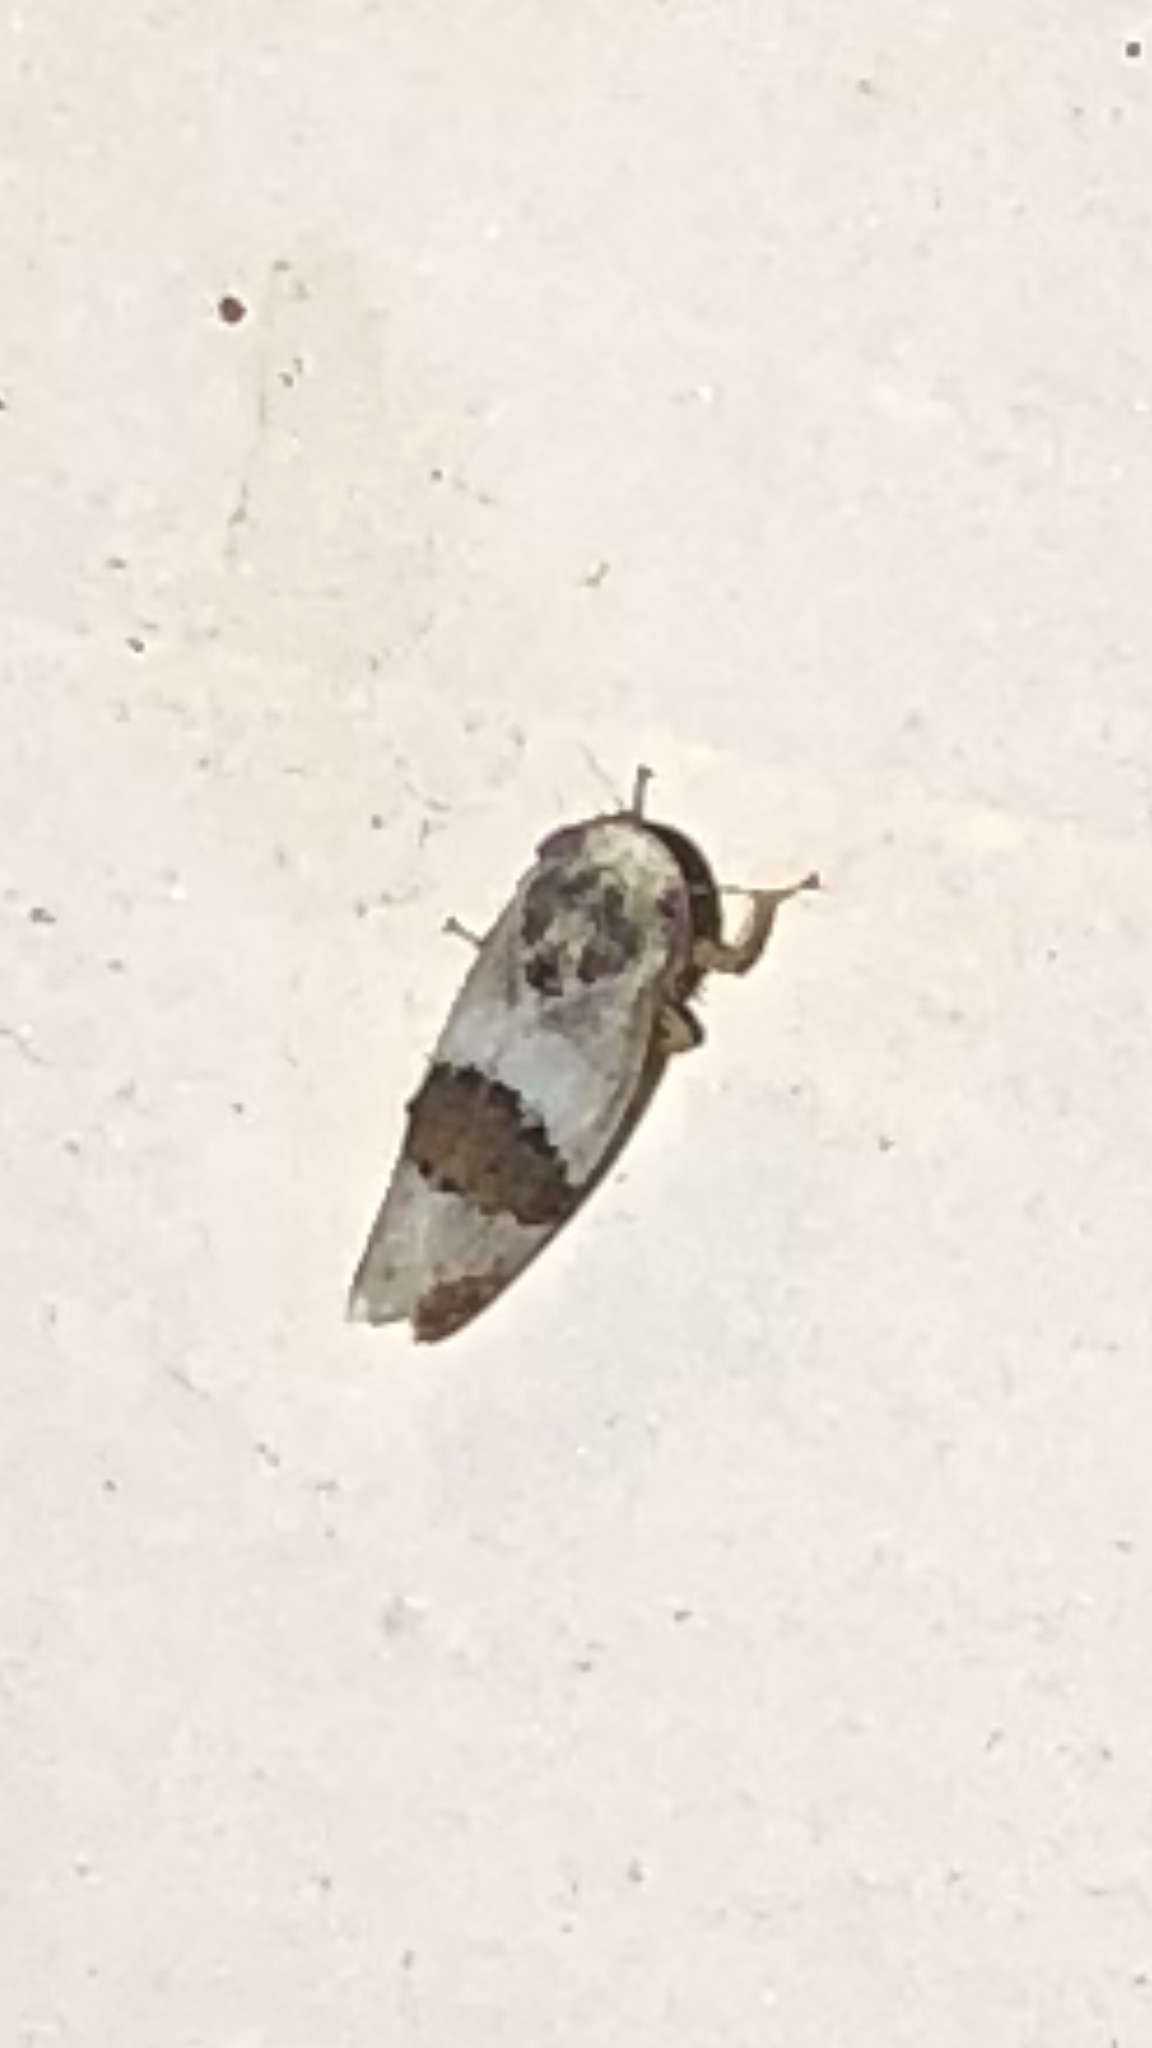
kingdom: Animalia
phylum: Arthropoda
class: Insecta
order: Hemiptera
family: Cicadellidae
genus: Norvellina
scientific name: Norvellina seminuda
